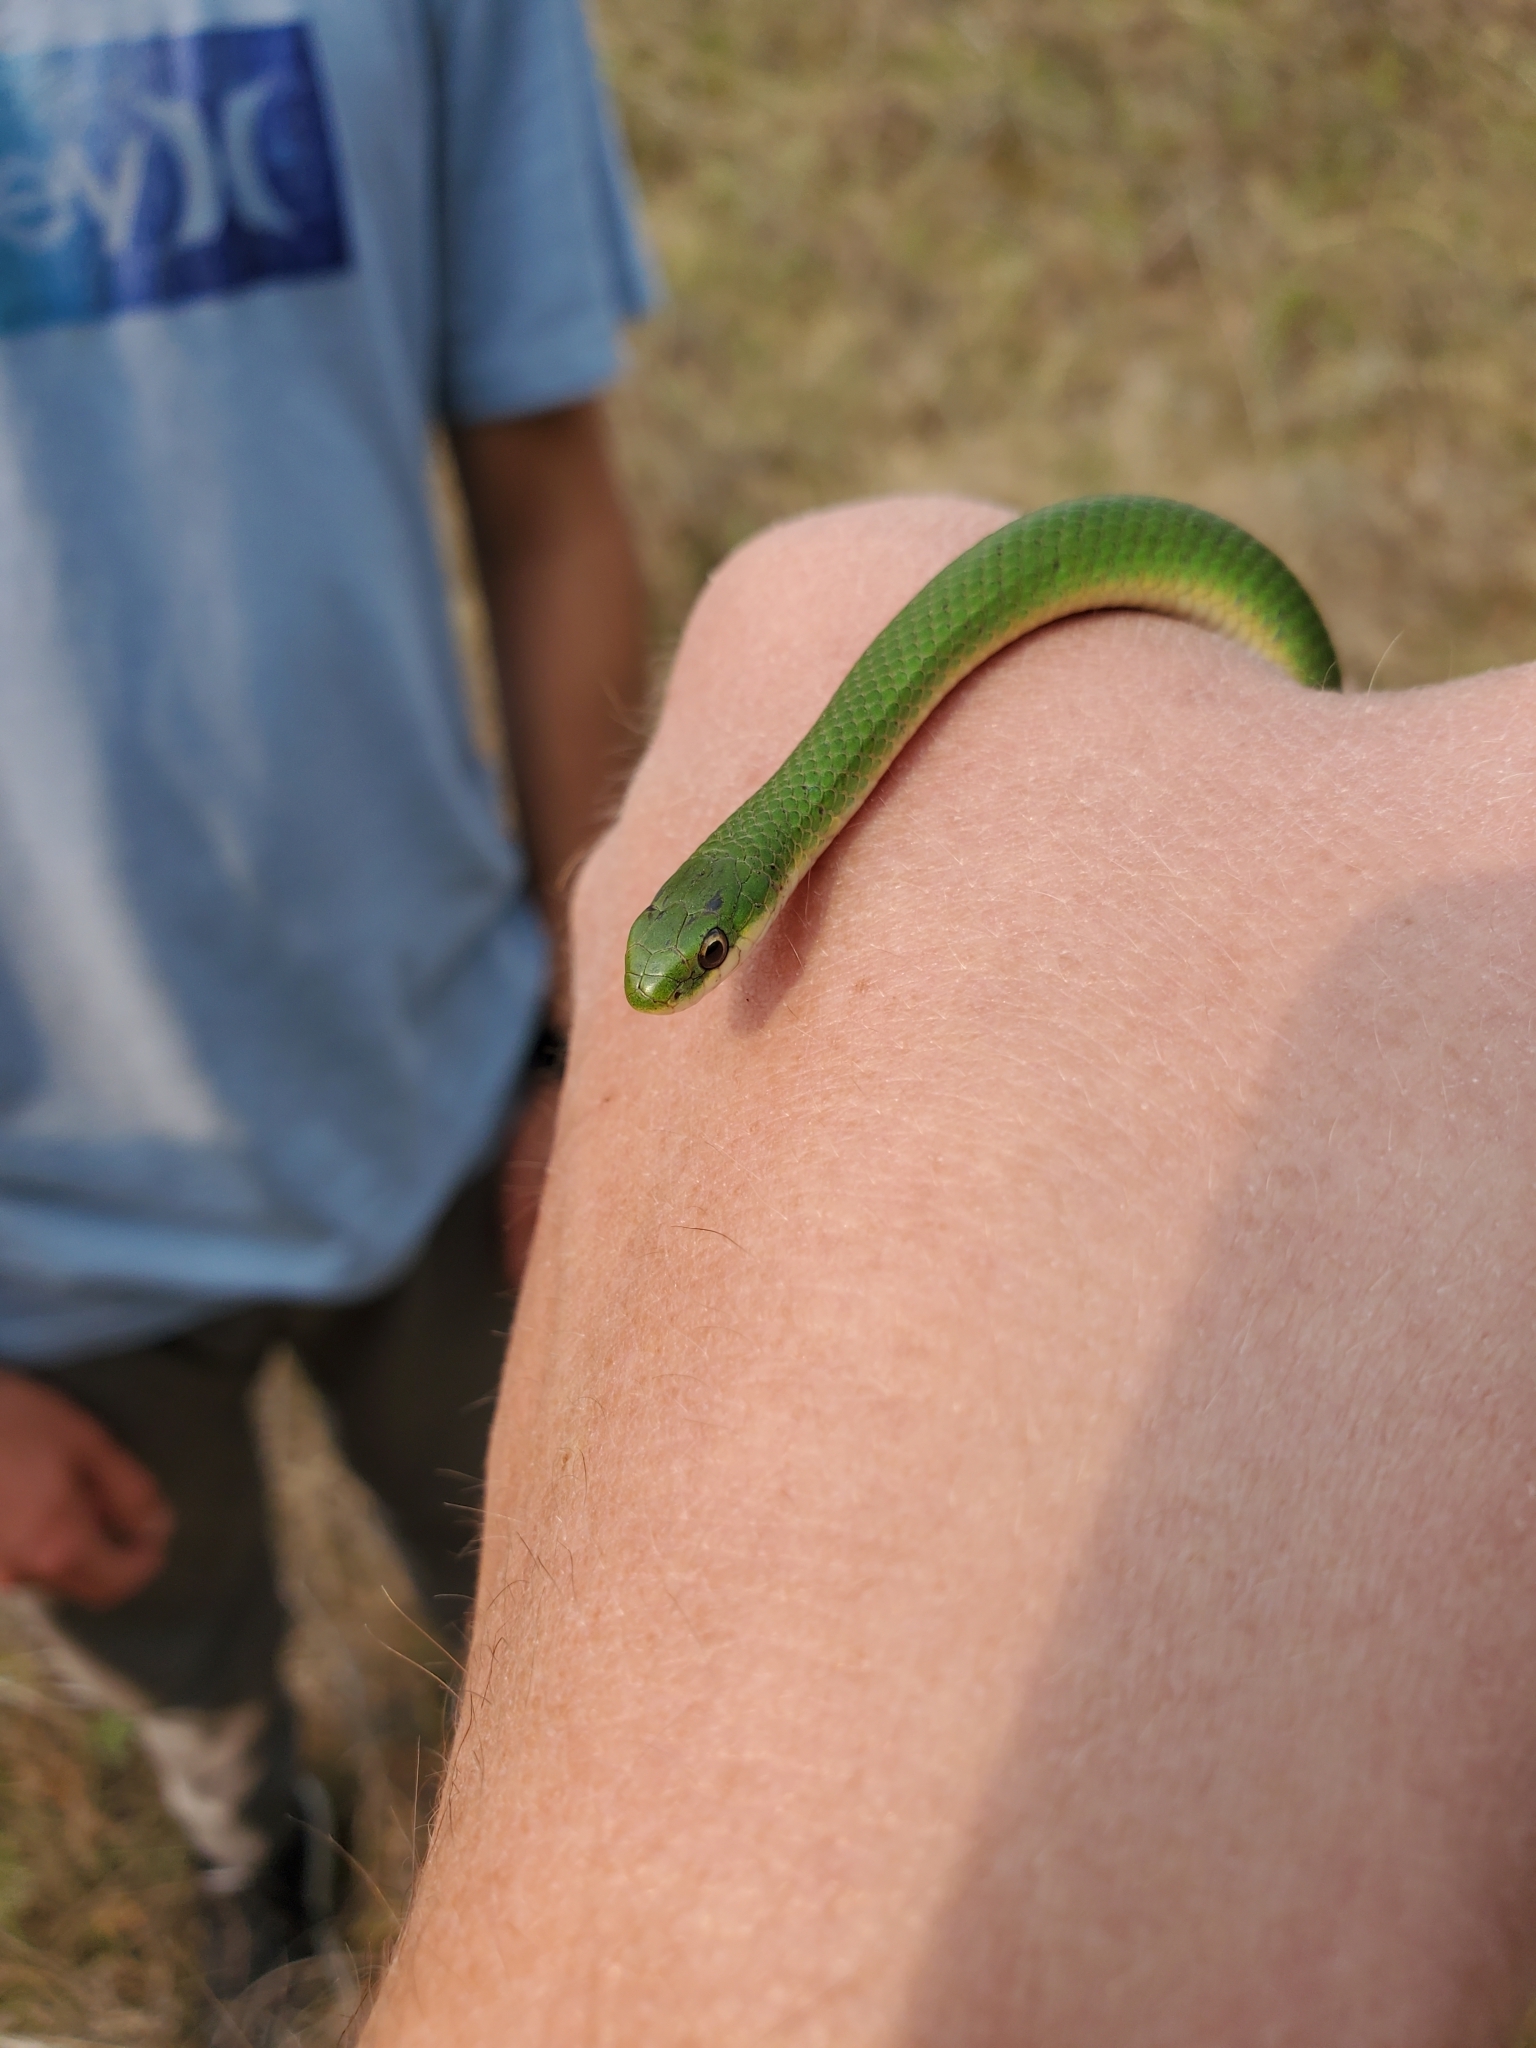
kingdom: Animalia
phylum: Chordata
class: Squamata
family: Colubridae
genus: Opheodrys
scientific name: Opheodrys vernalis
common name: Smooth green snake
